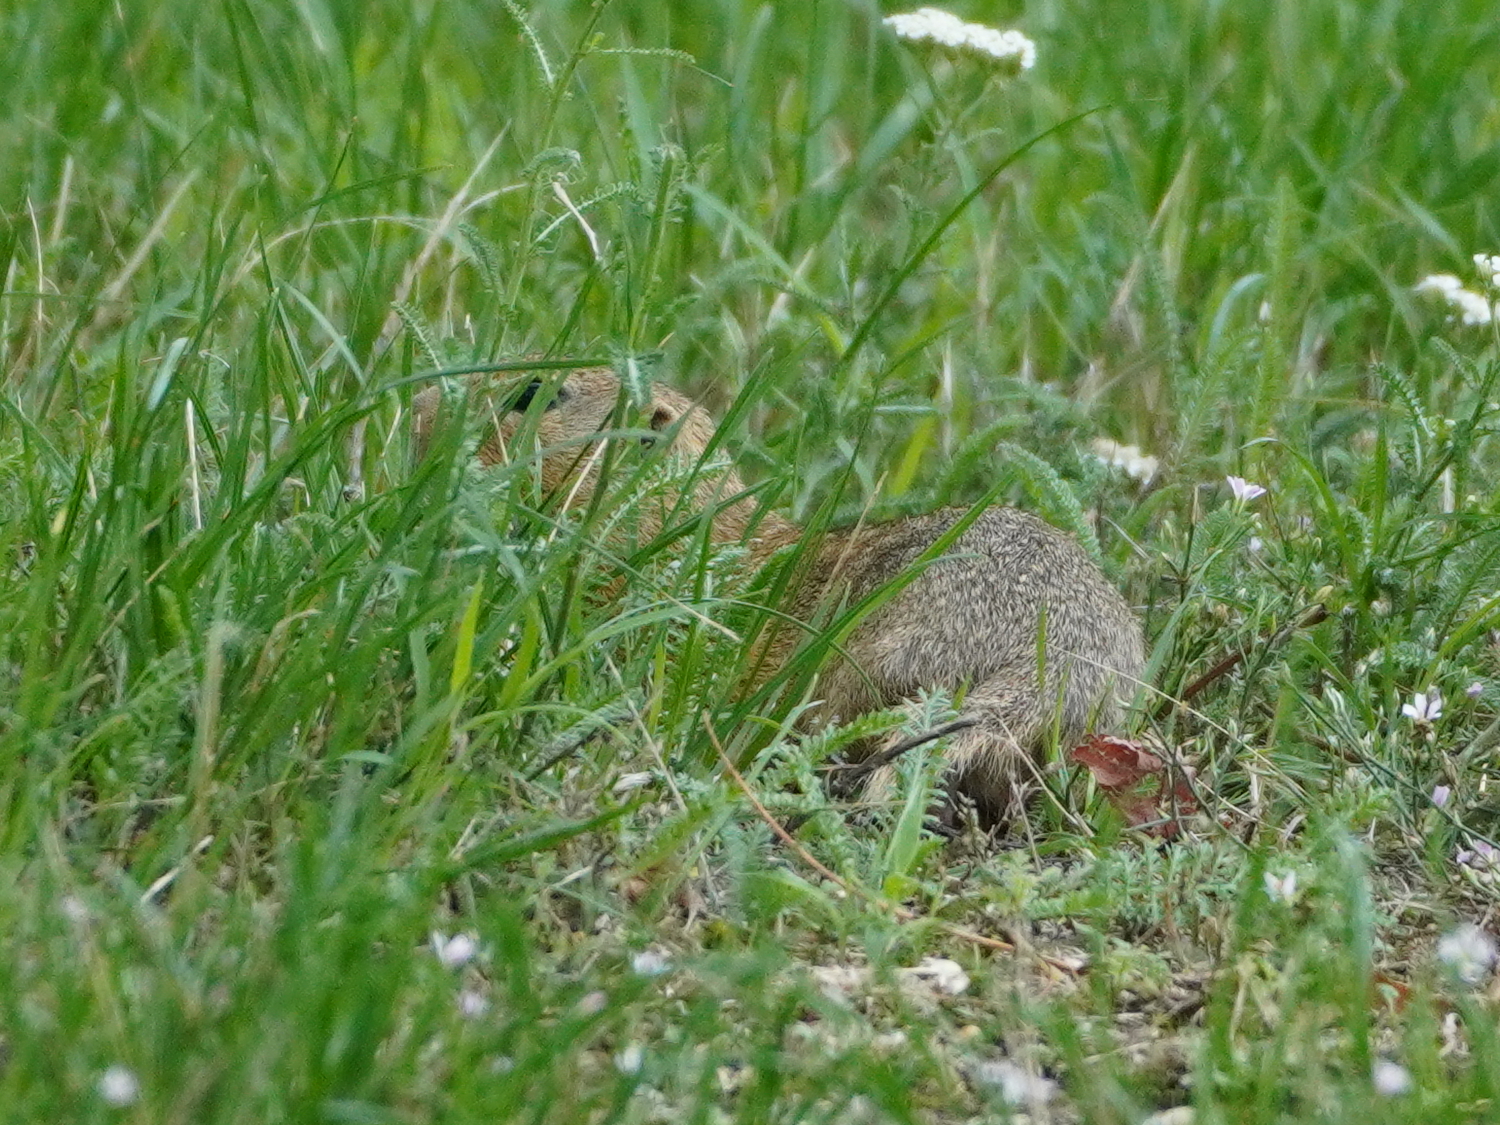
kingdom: Animalia
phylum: Chordata
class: Mammalia
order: Rodentia
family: Sciuridae
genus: Spermophilus
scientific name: Spermophilus citellus
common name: European ground squirrel
